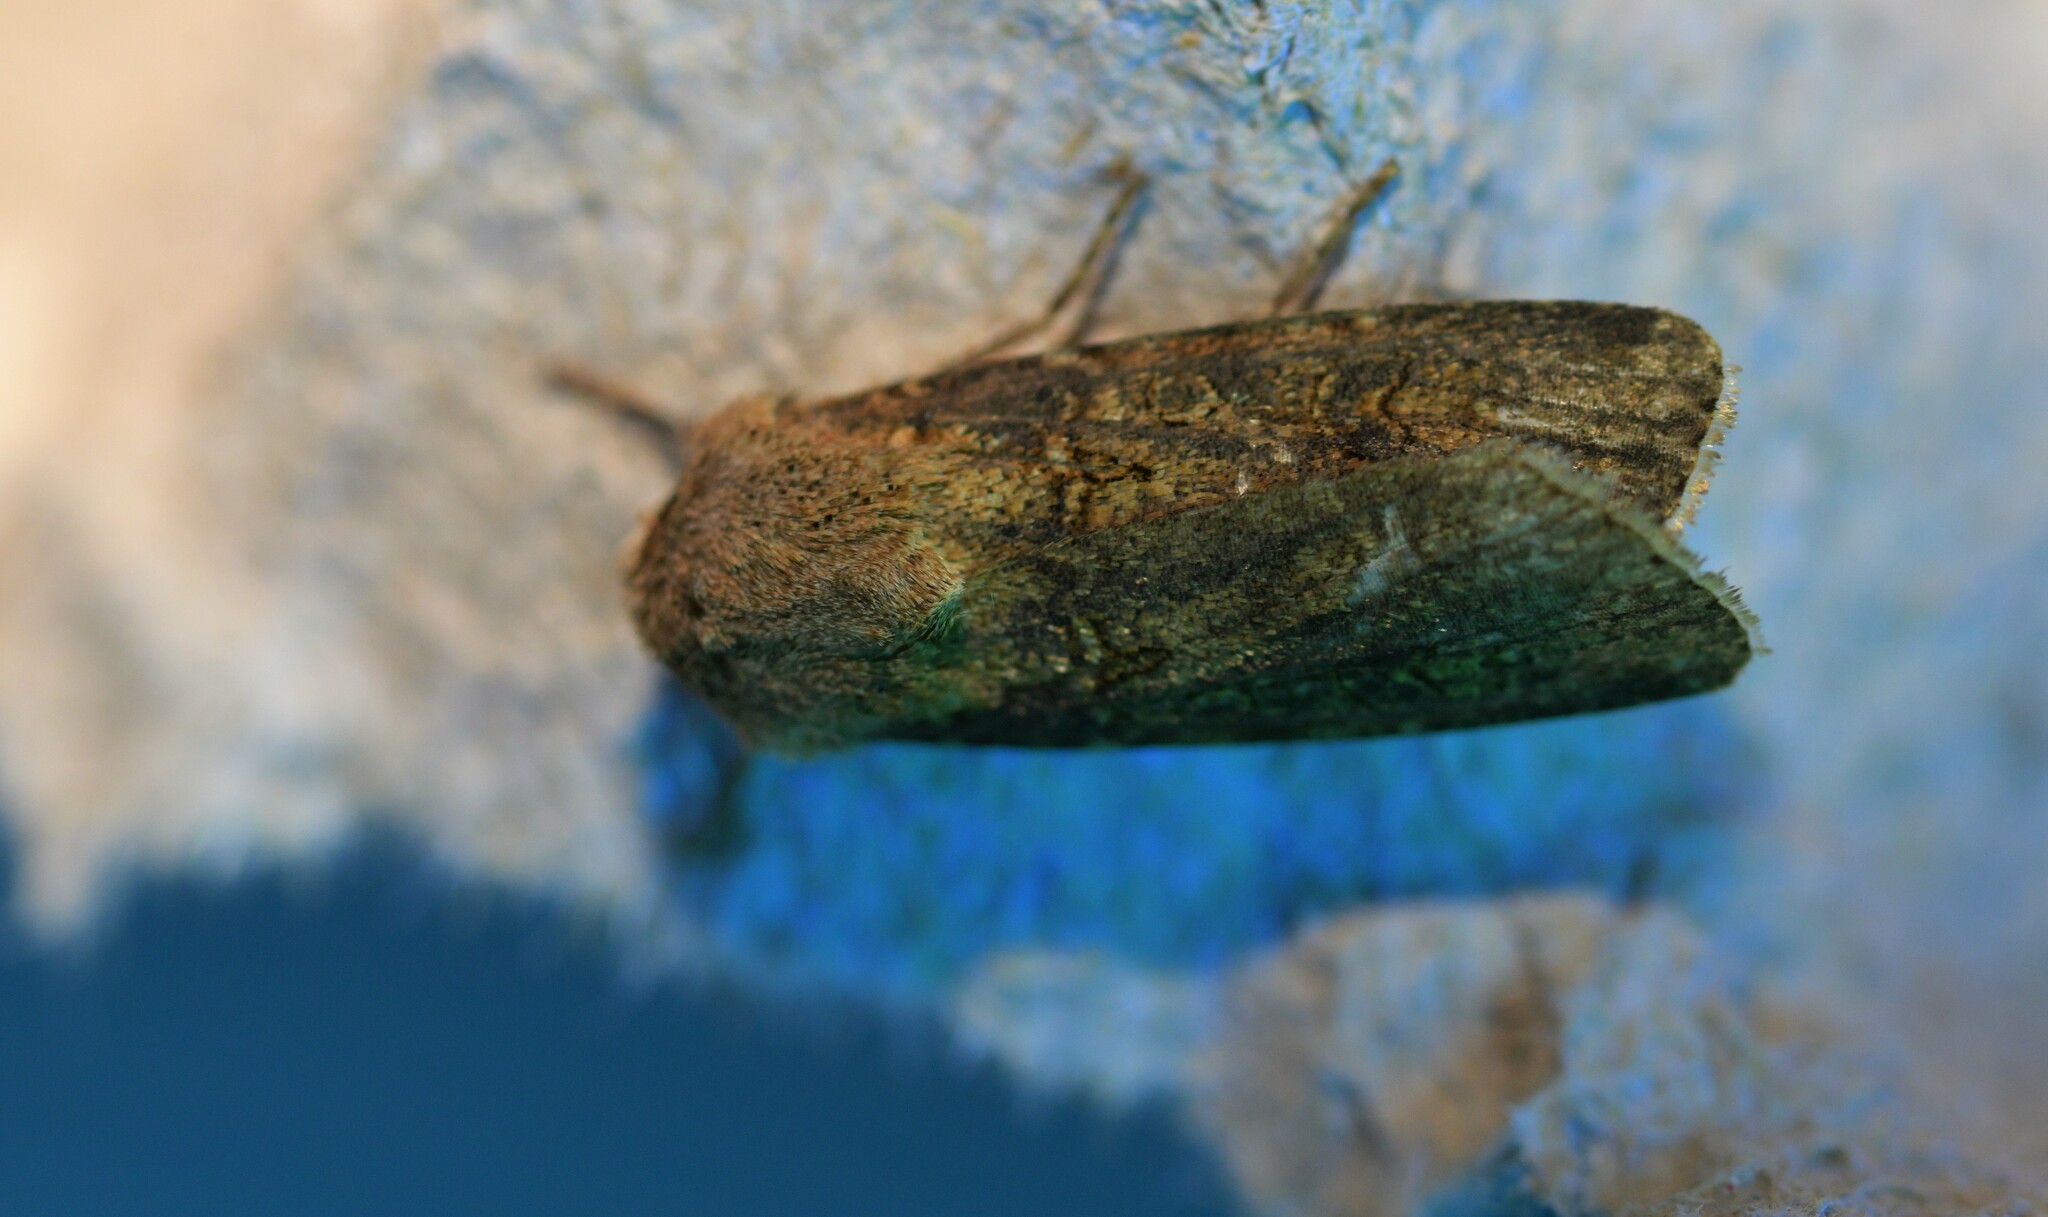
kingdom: Animalia
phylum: Arthropoda
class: Insecta
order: Lepidoptera
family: Noctuidae
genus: Agrotis
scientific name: Agrotis segetum
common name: Turnip moth
